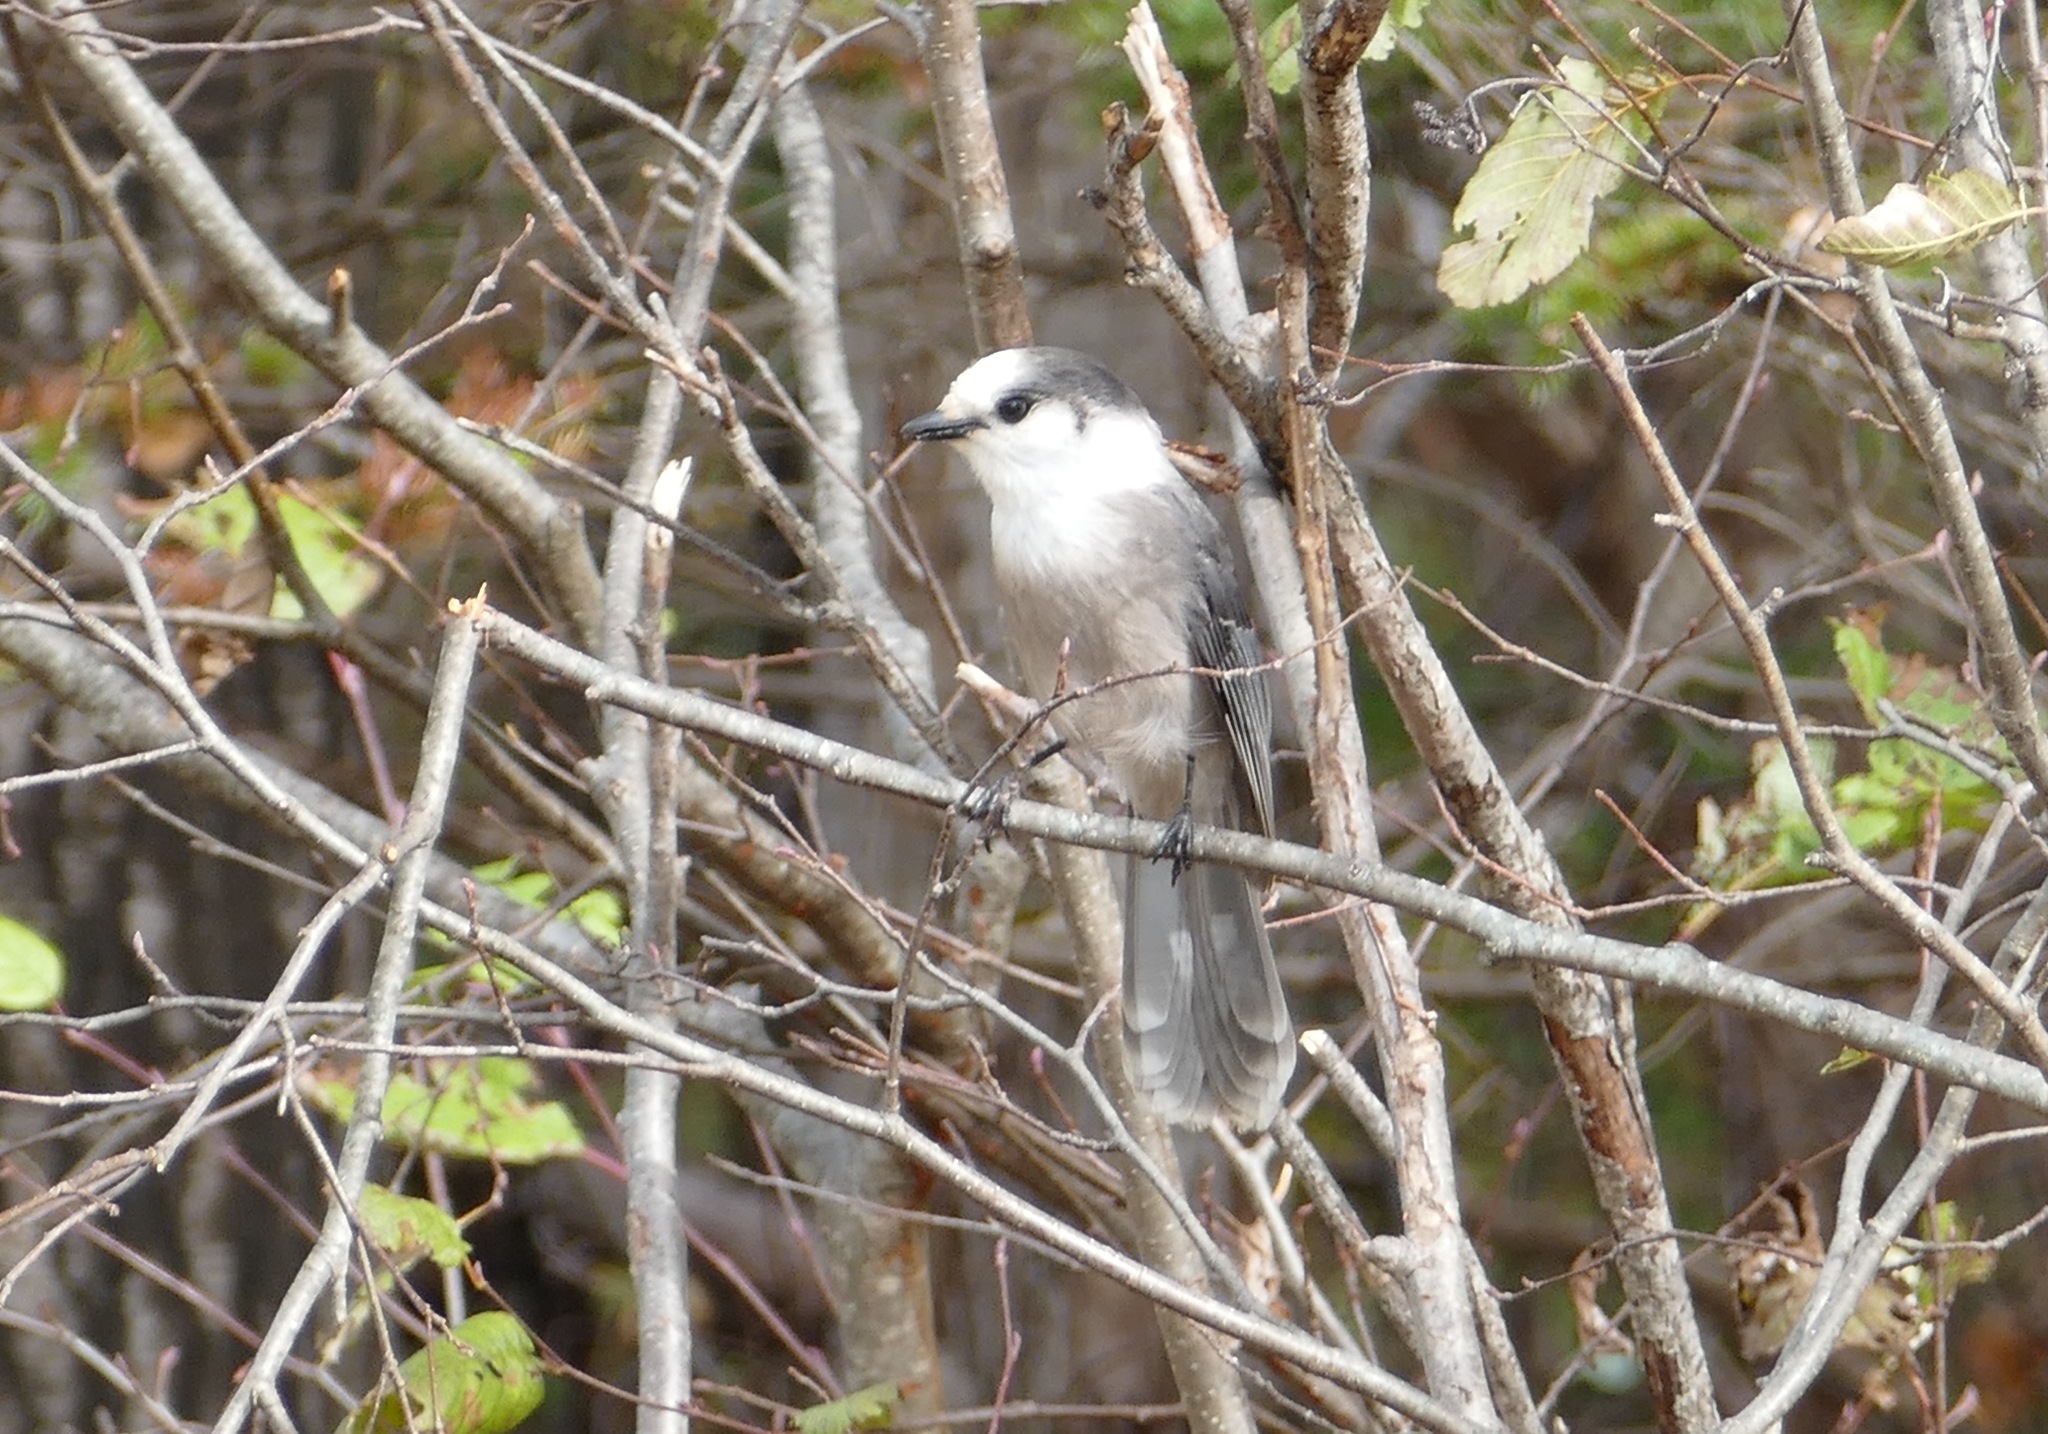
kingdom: Animalia
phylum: Chordata
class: Aves
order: Passeriformes
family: Corvidae
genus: Perisoreus
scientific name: Perisoreus canadensis
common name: Gray jay
